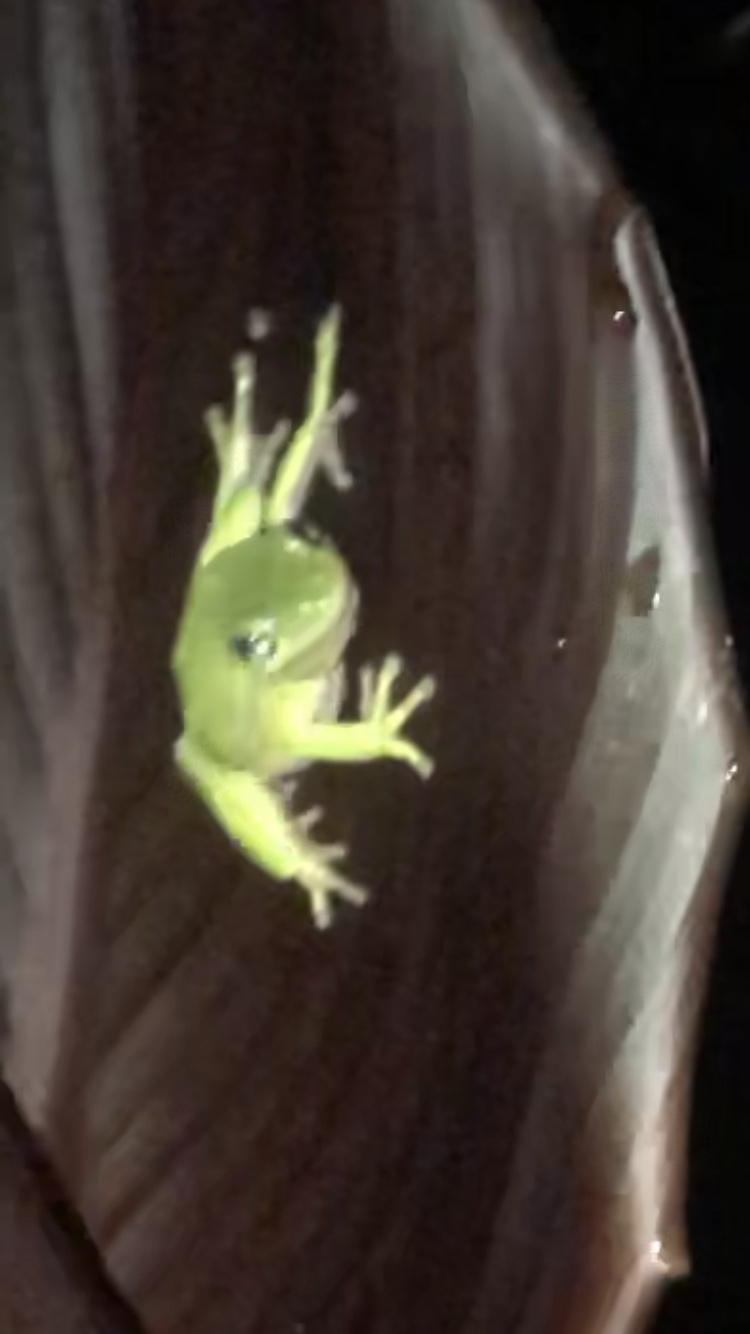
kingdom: Animalia
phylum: Chordata
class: Amphibia
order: Anura
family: Hylidae
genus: Dryophytes
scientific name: Dryophytes cinereus
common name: Green treefrog
